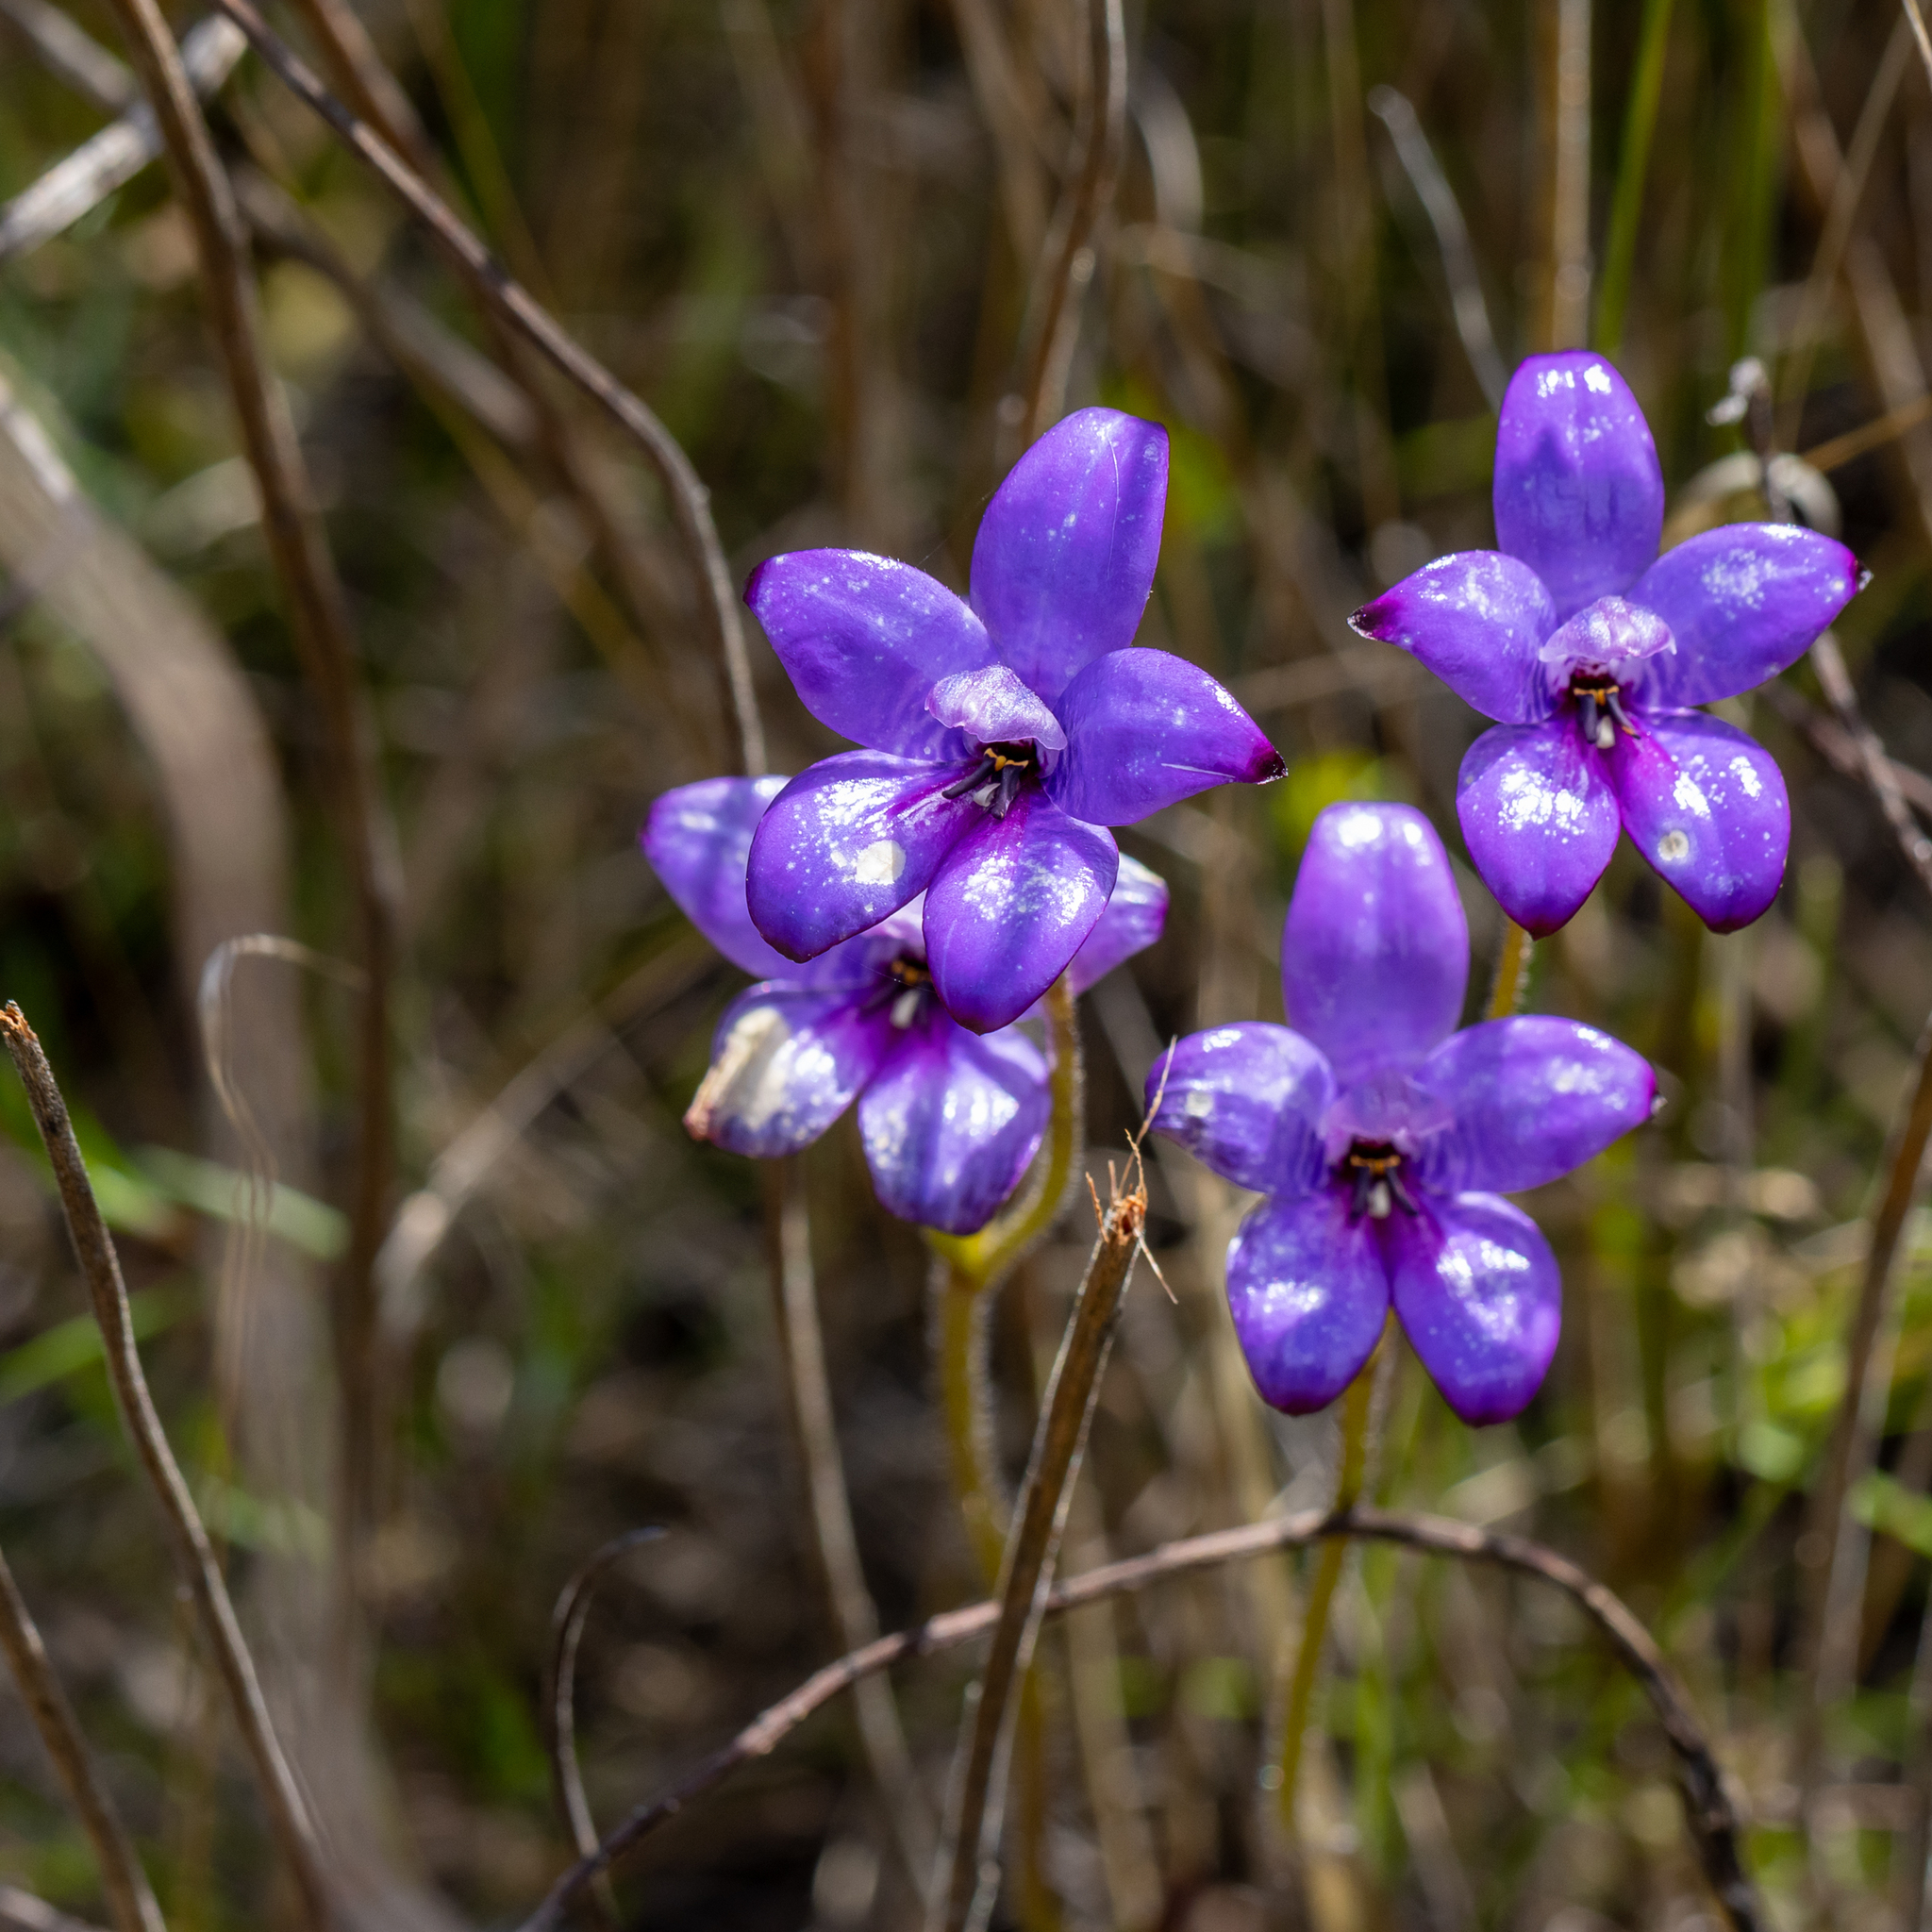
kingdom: Plantae
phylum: Tracheophyta
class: Liliopsida
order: Asparagales
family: Orchidaceae
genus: Caladenia
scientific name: Caladenia brunonis
